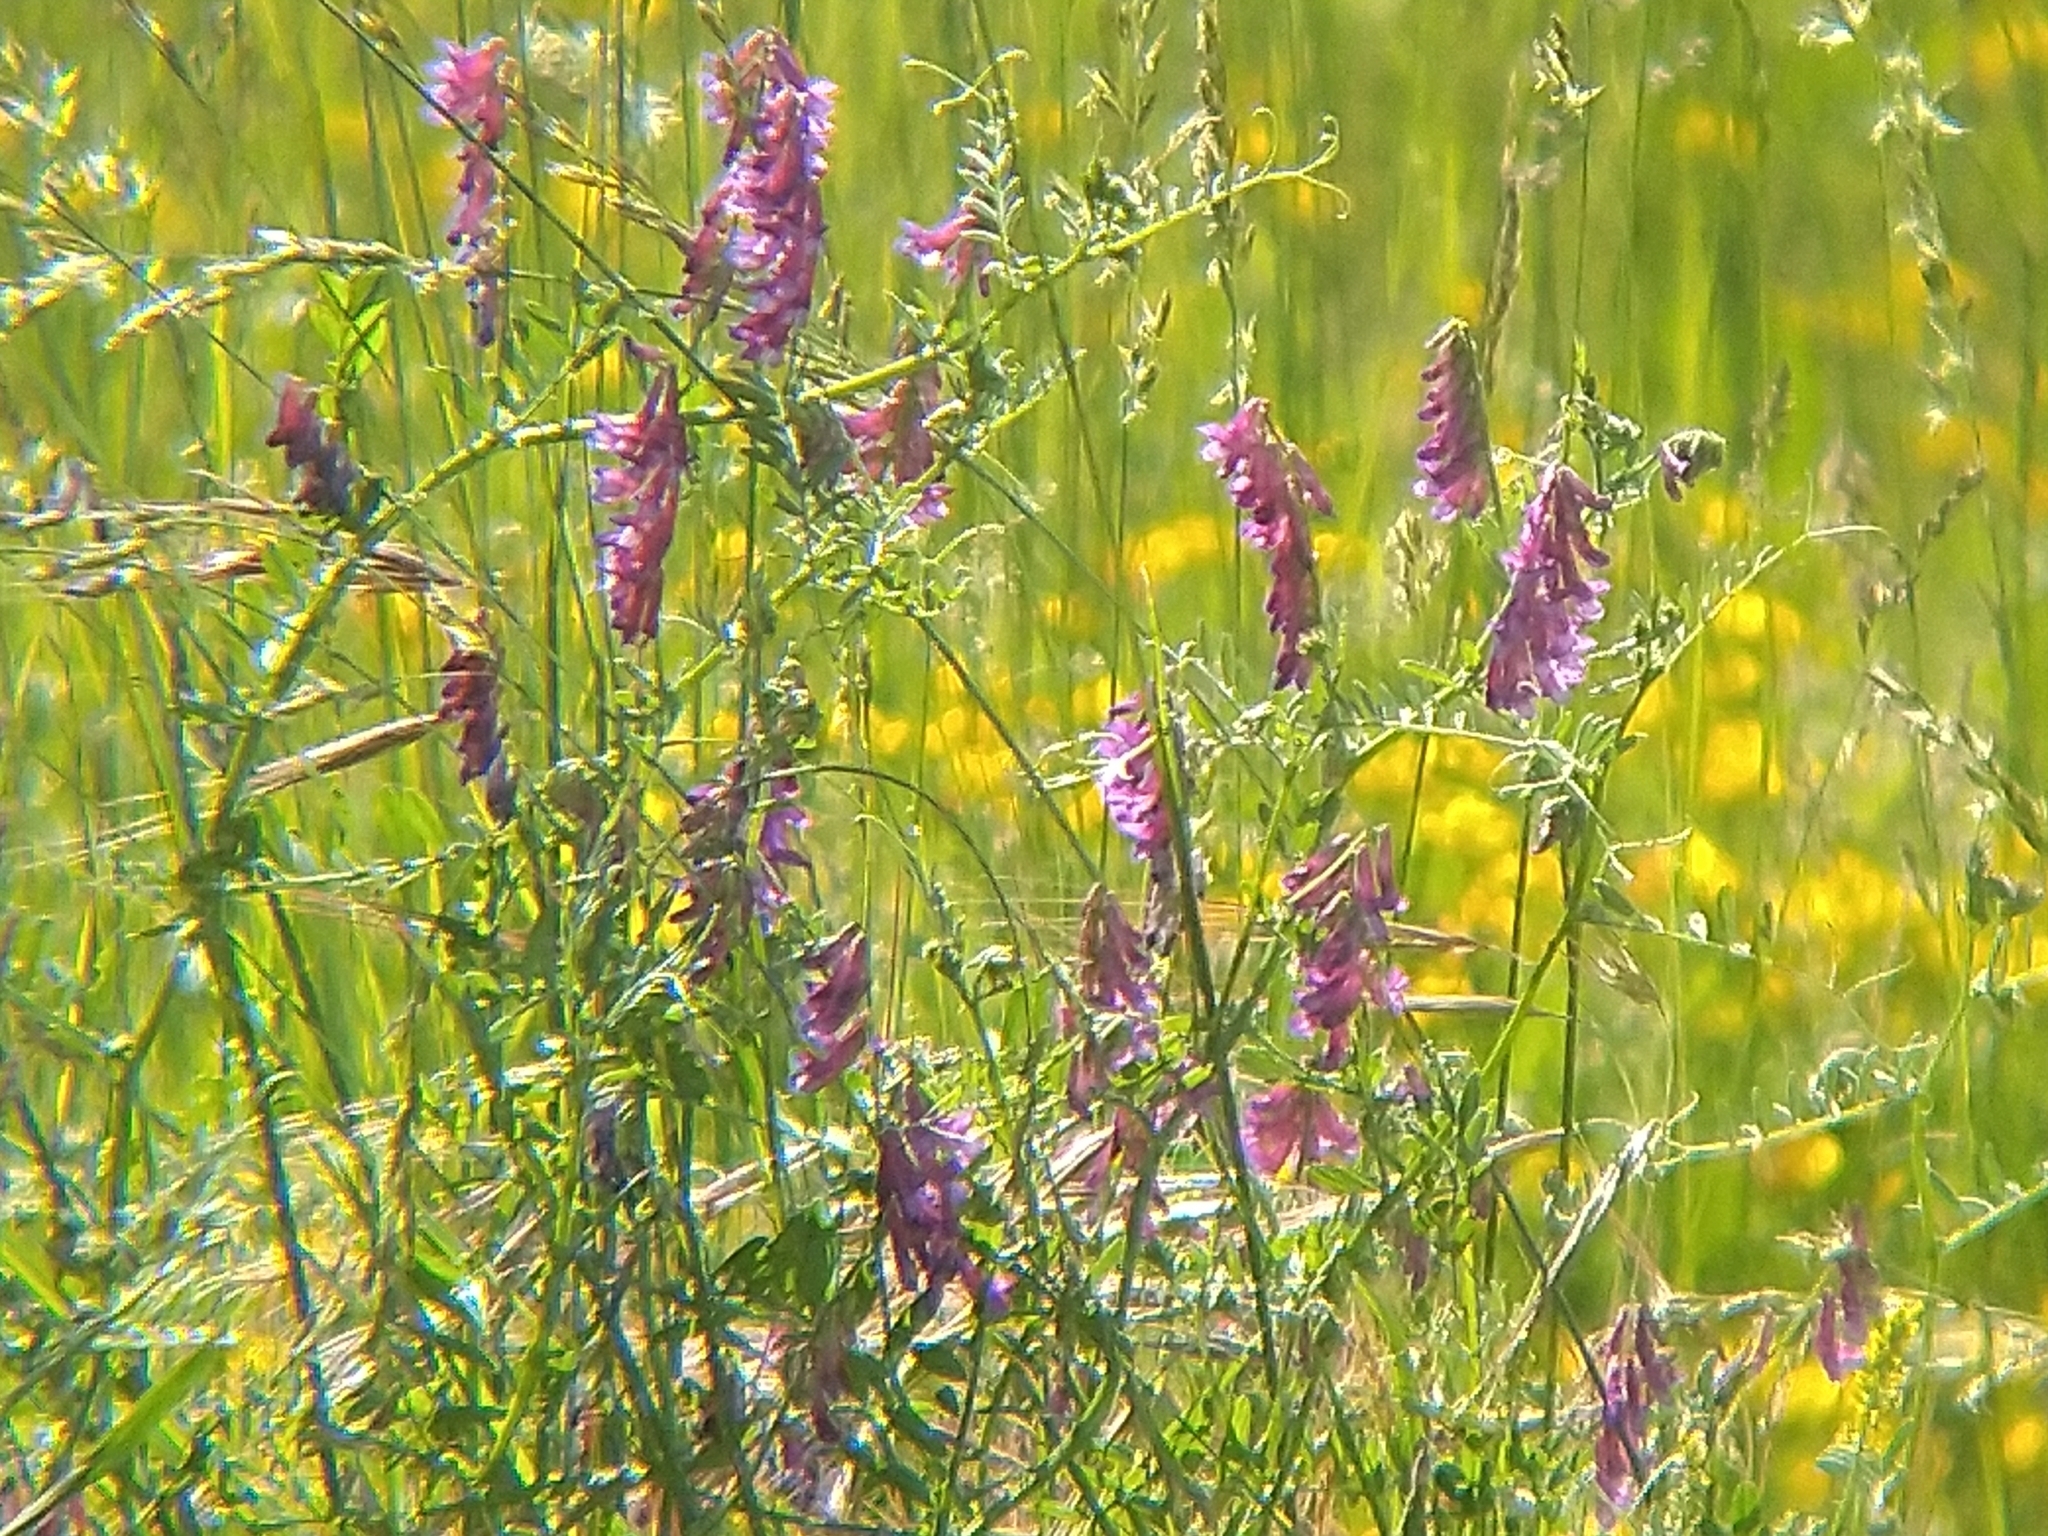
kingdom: Plantae
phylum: Tracheophyta
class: Magnoliopsida
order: Fabales
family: Fabaceae
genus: Vicia
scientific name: Vicia villosa
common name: Fodder vetch
